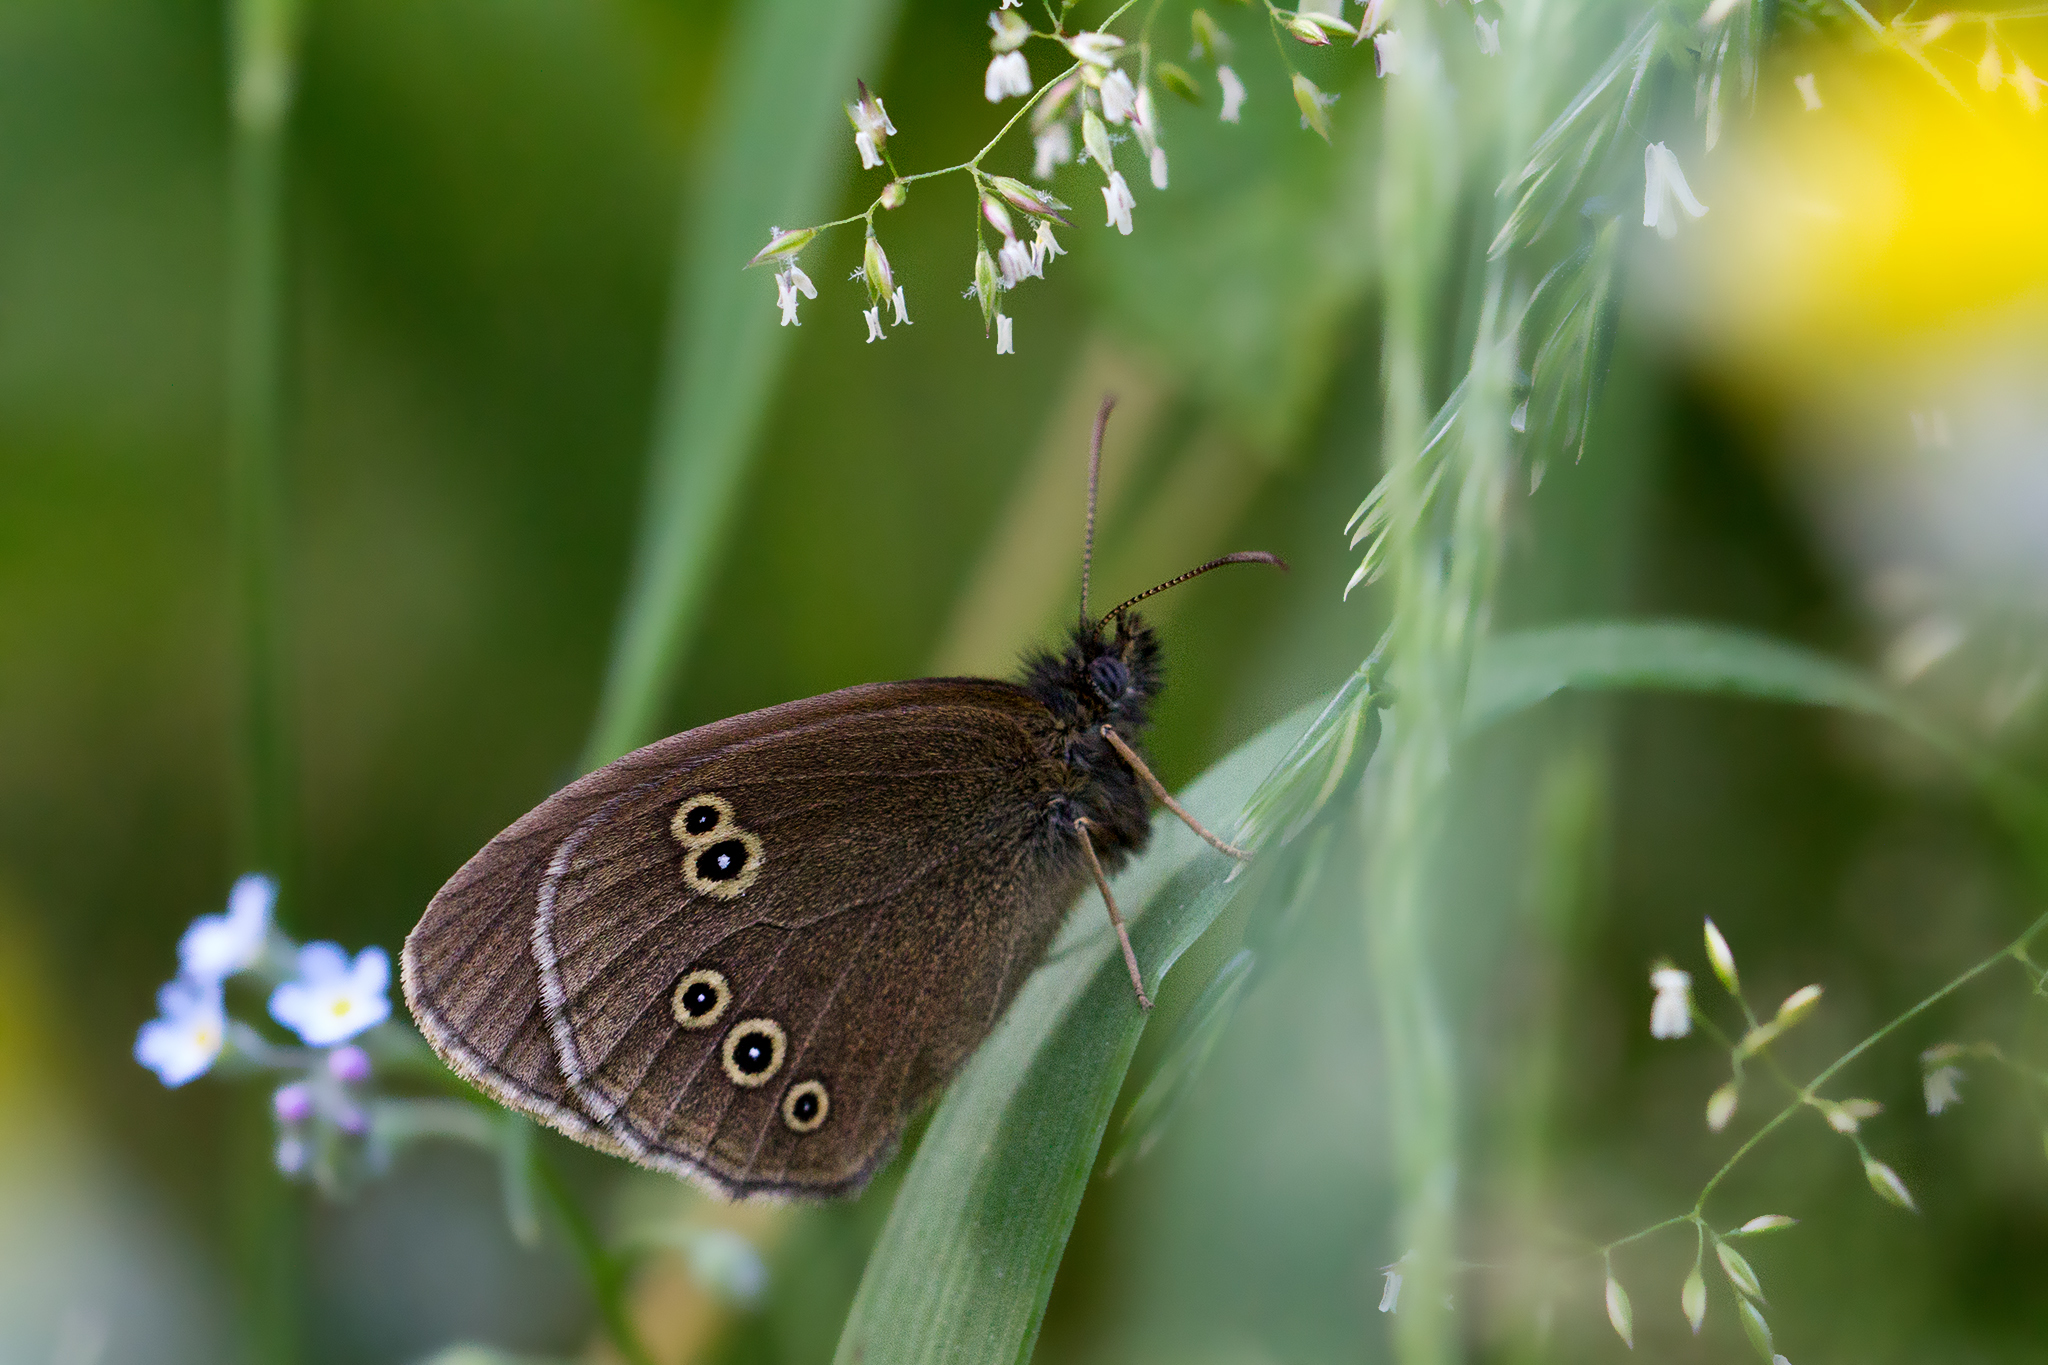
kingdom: Animalia
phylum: Arthropoda
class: Insecta
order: Lepidoptera
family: Nymphalidae
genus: Aphantopus
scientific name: Aphantopus hyperantus
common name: Ringlet
